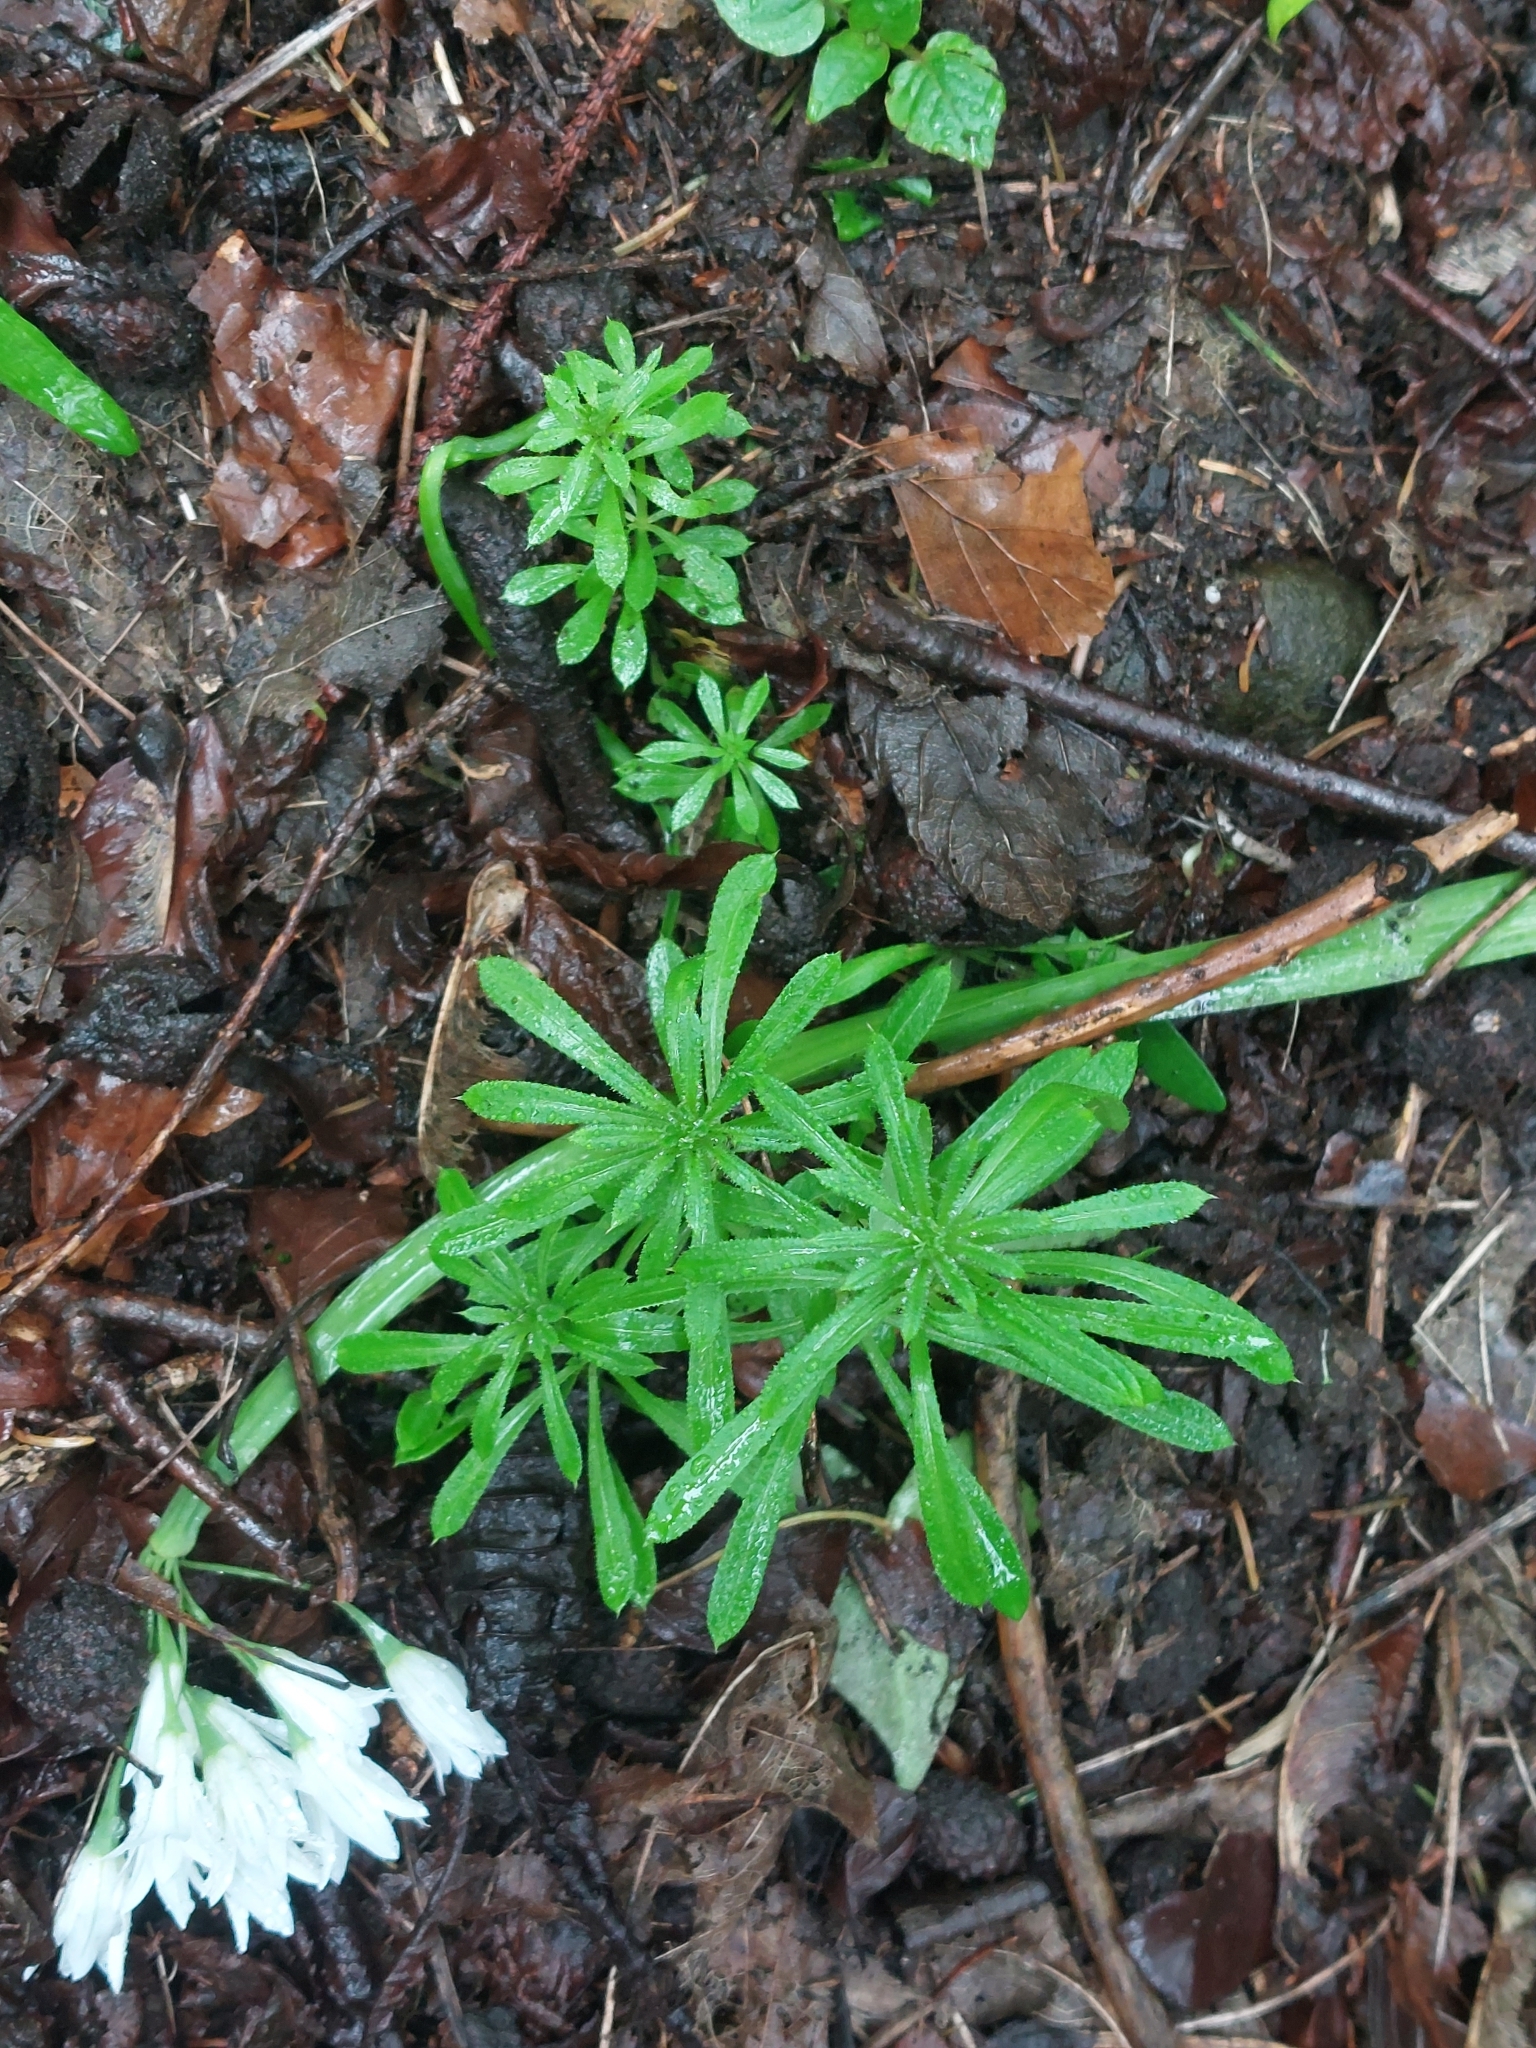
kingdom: Plantae
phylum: Tracheophyta
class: Magnoliopsida
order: Gentianales
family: Rubiaceae
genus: Galium
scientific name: Galium aparine
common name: Cleavers
